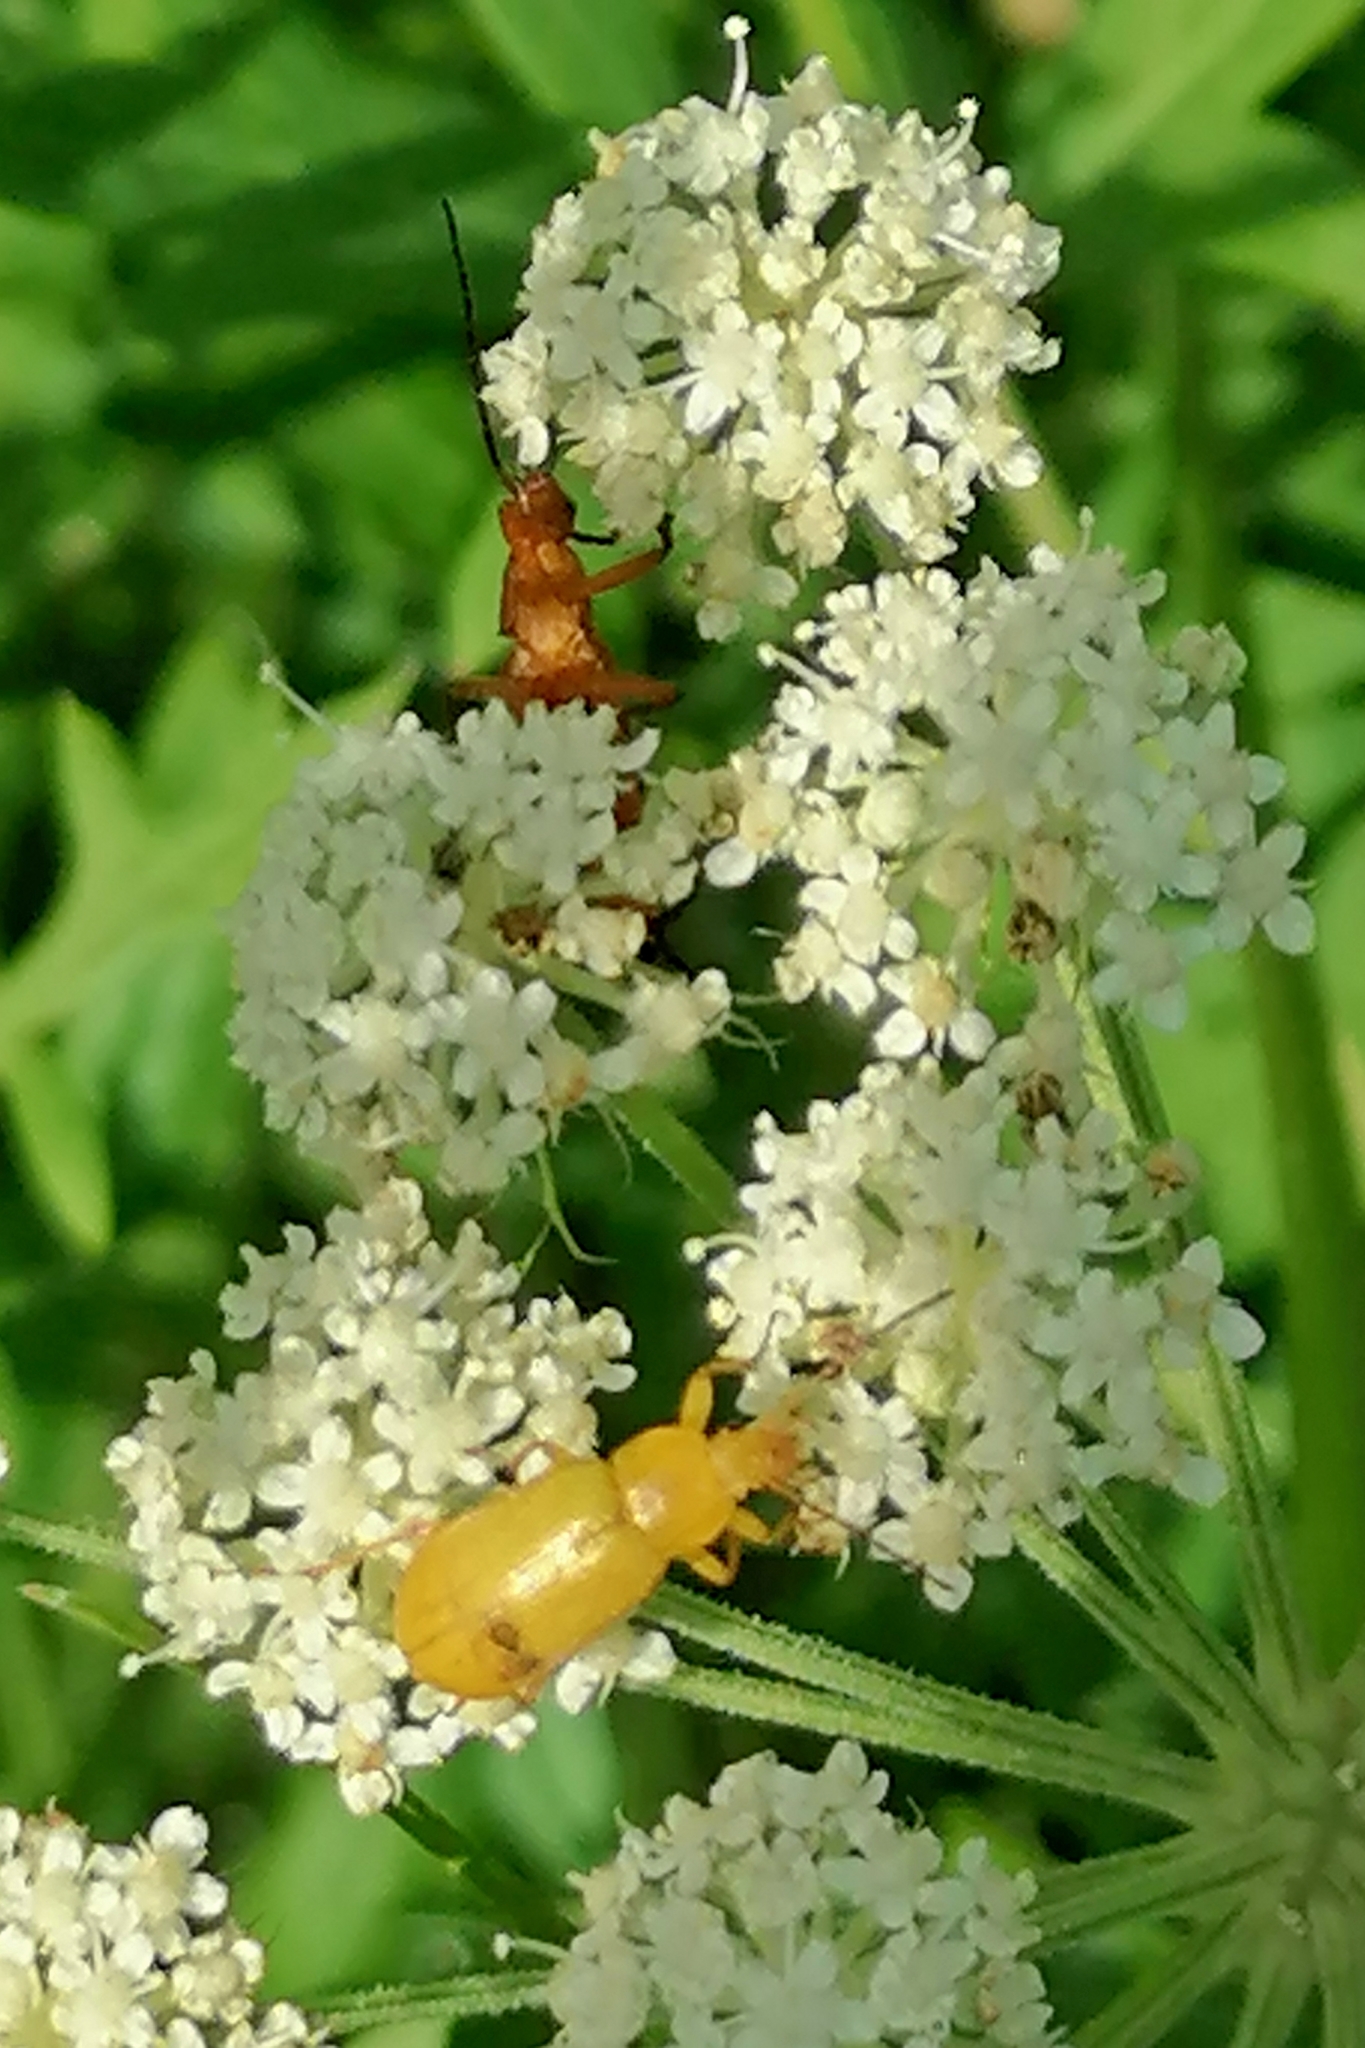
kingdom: Plantae
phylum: Tracheophyta
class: Magnoliopsida
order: Apiales
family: Apiaceae
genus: Seseli
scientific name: Seseli libanotis
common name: Mooncarrot
